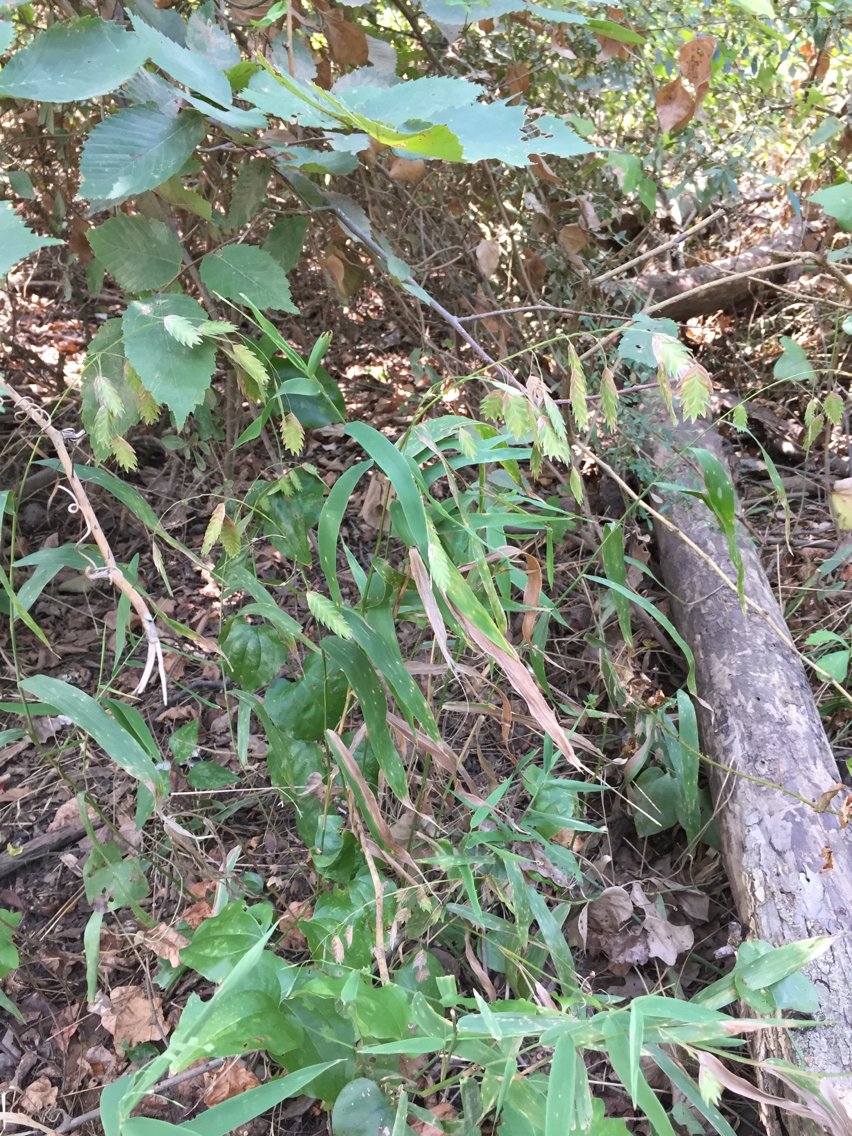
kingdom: Plantae
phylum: Tracheophyta
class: Liliopsida
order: Poales
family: Poaceae
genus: Chasmanthium
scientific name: Chasmanthium latifolium
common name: Broad-leaved chasmanthium
